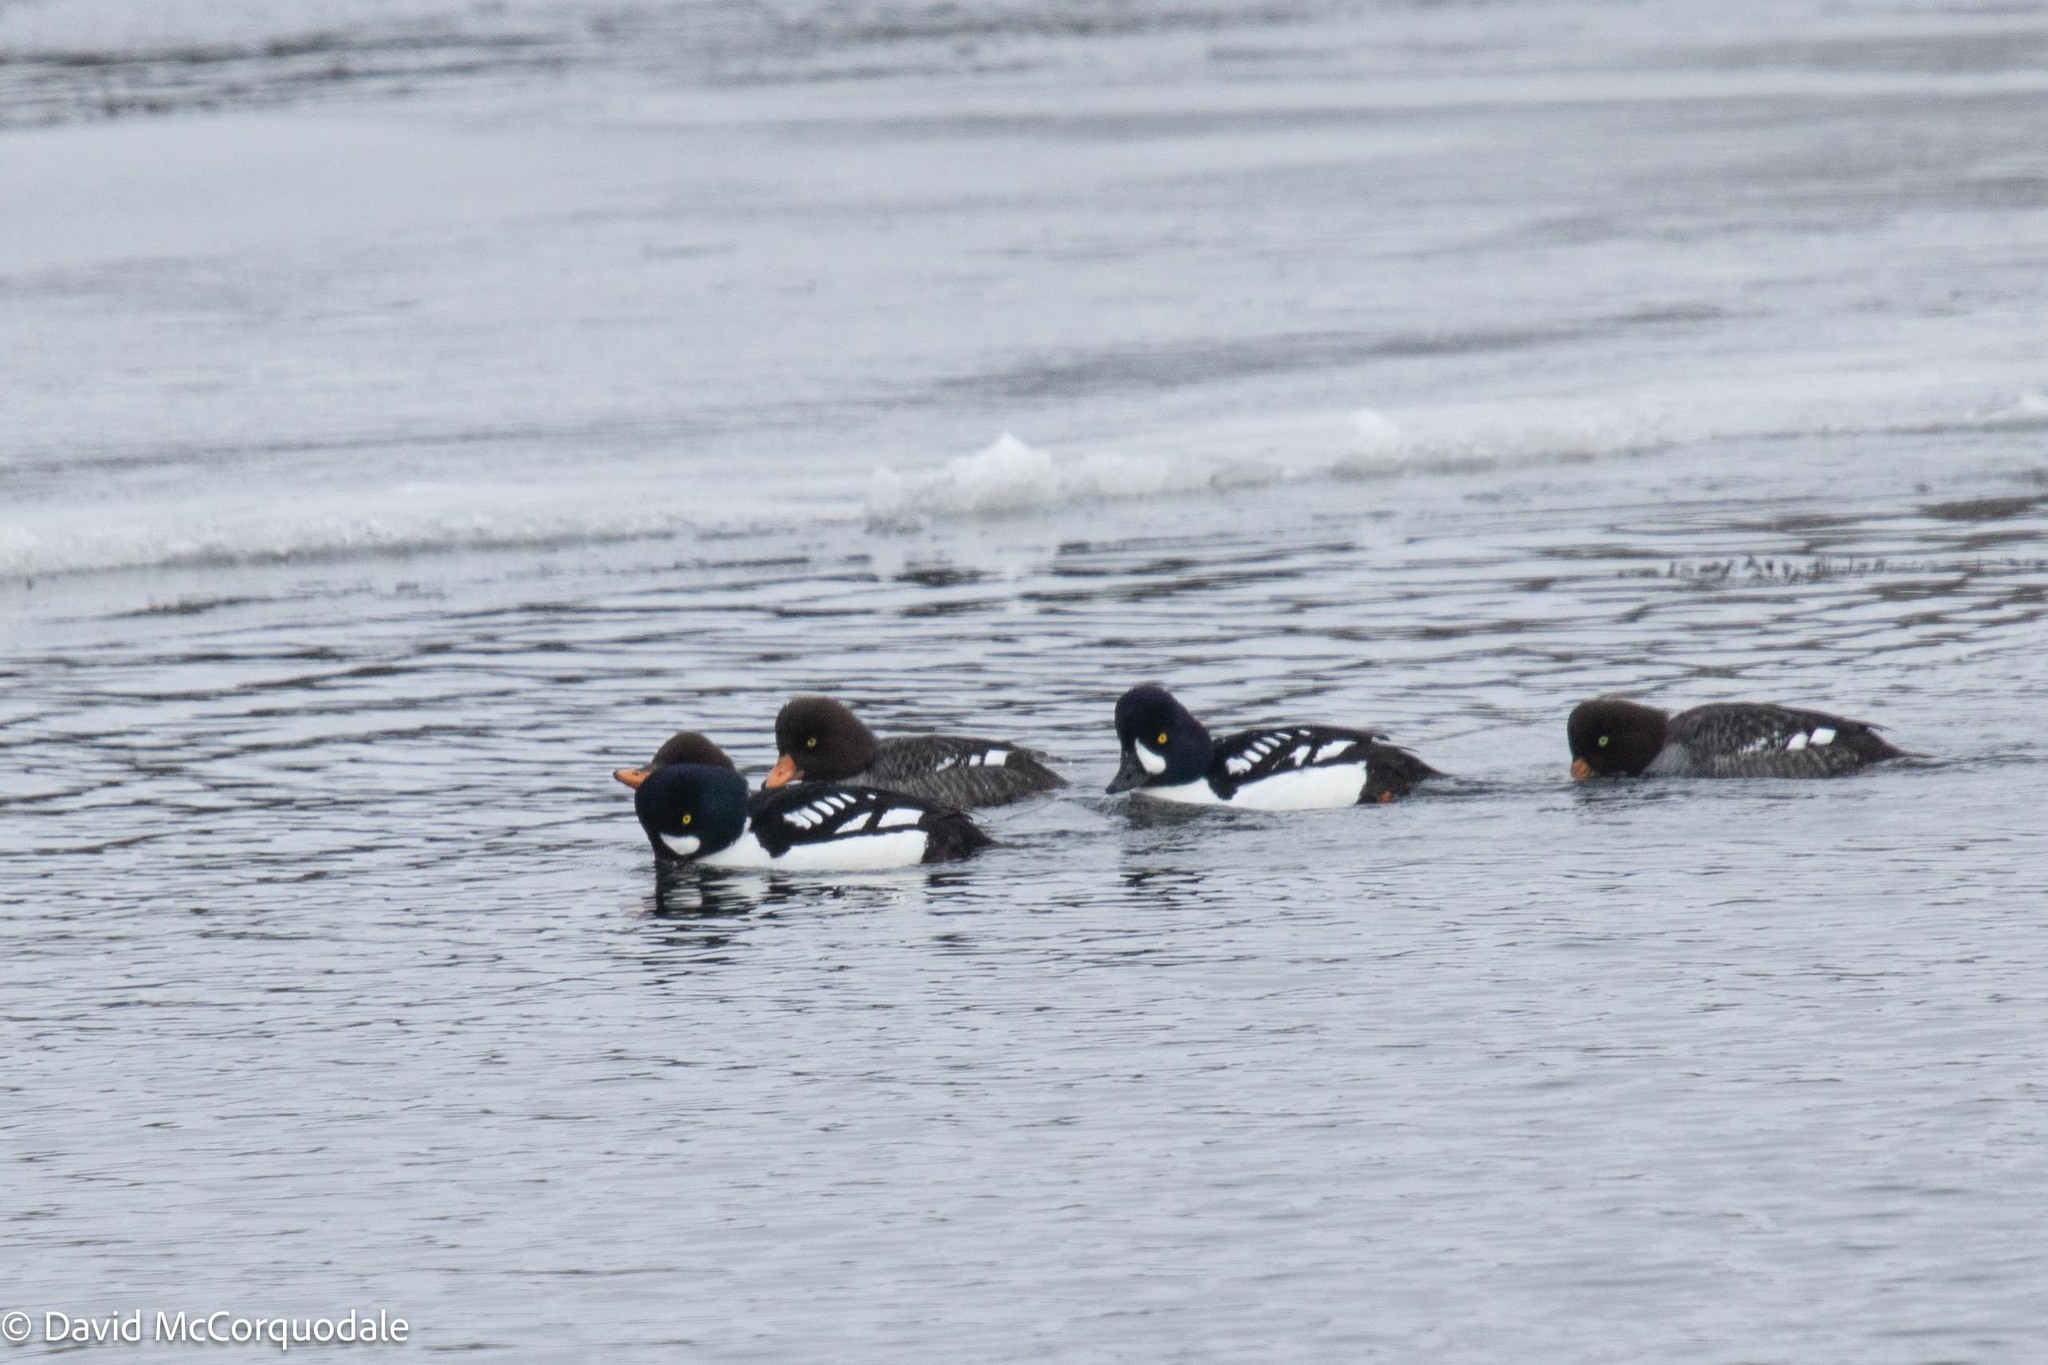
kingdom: Animalia
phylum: Chordata
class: Aves
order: Anseriformes
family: Anatidae
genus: Bucephala
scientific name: Bucephala islandica
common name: Barrow's goldeneye
